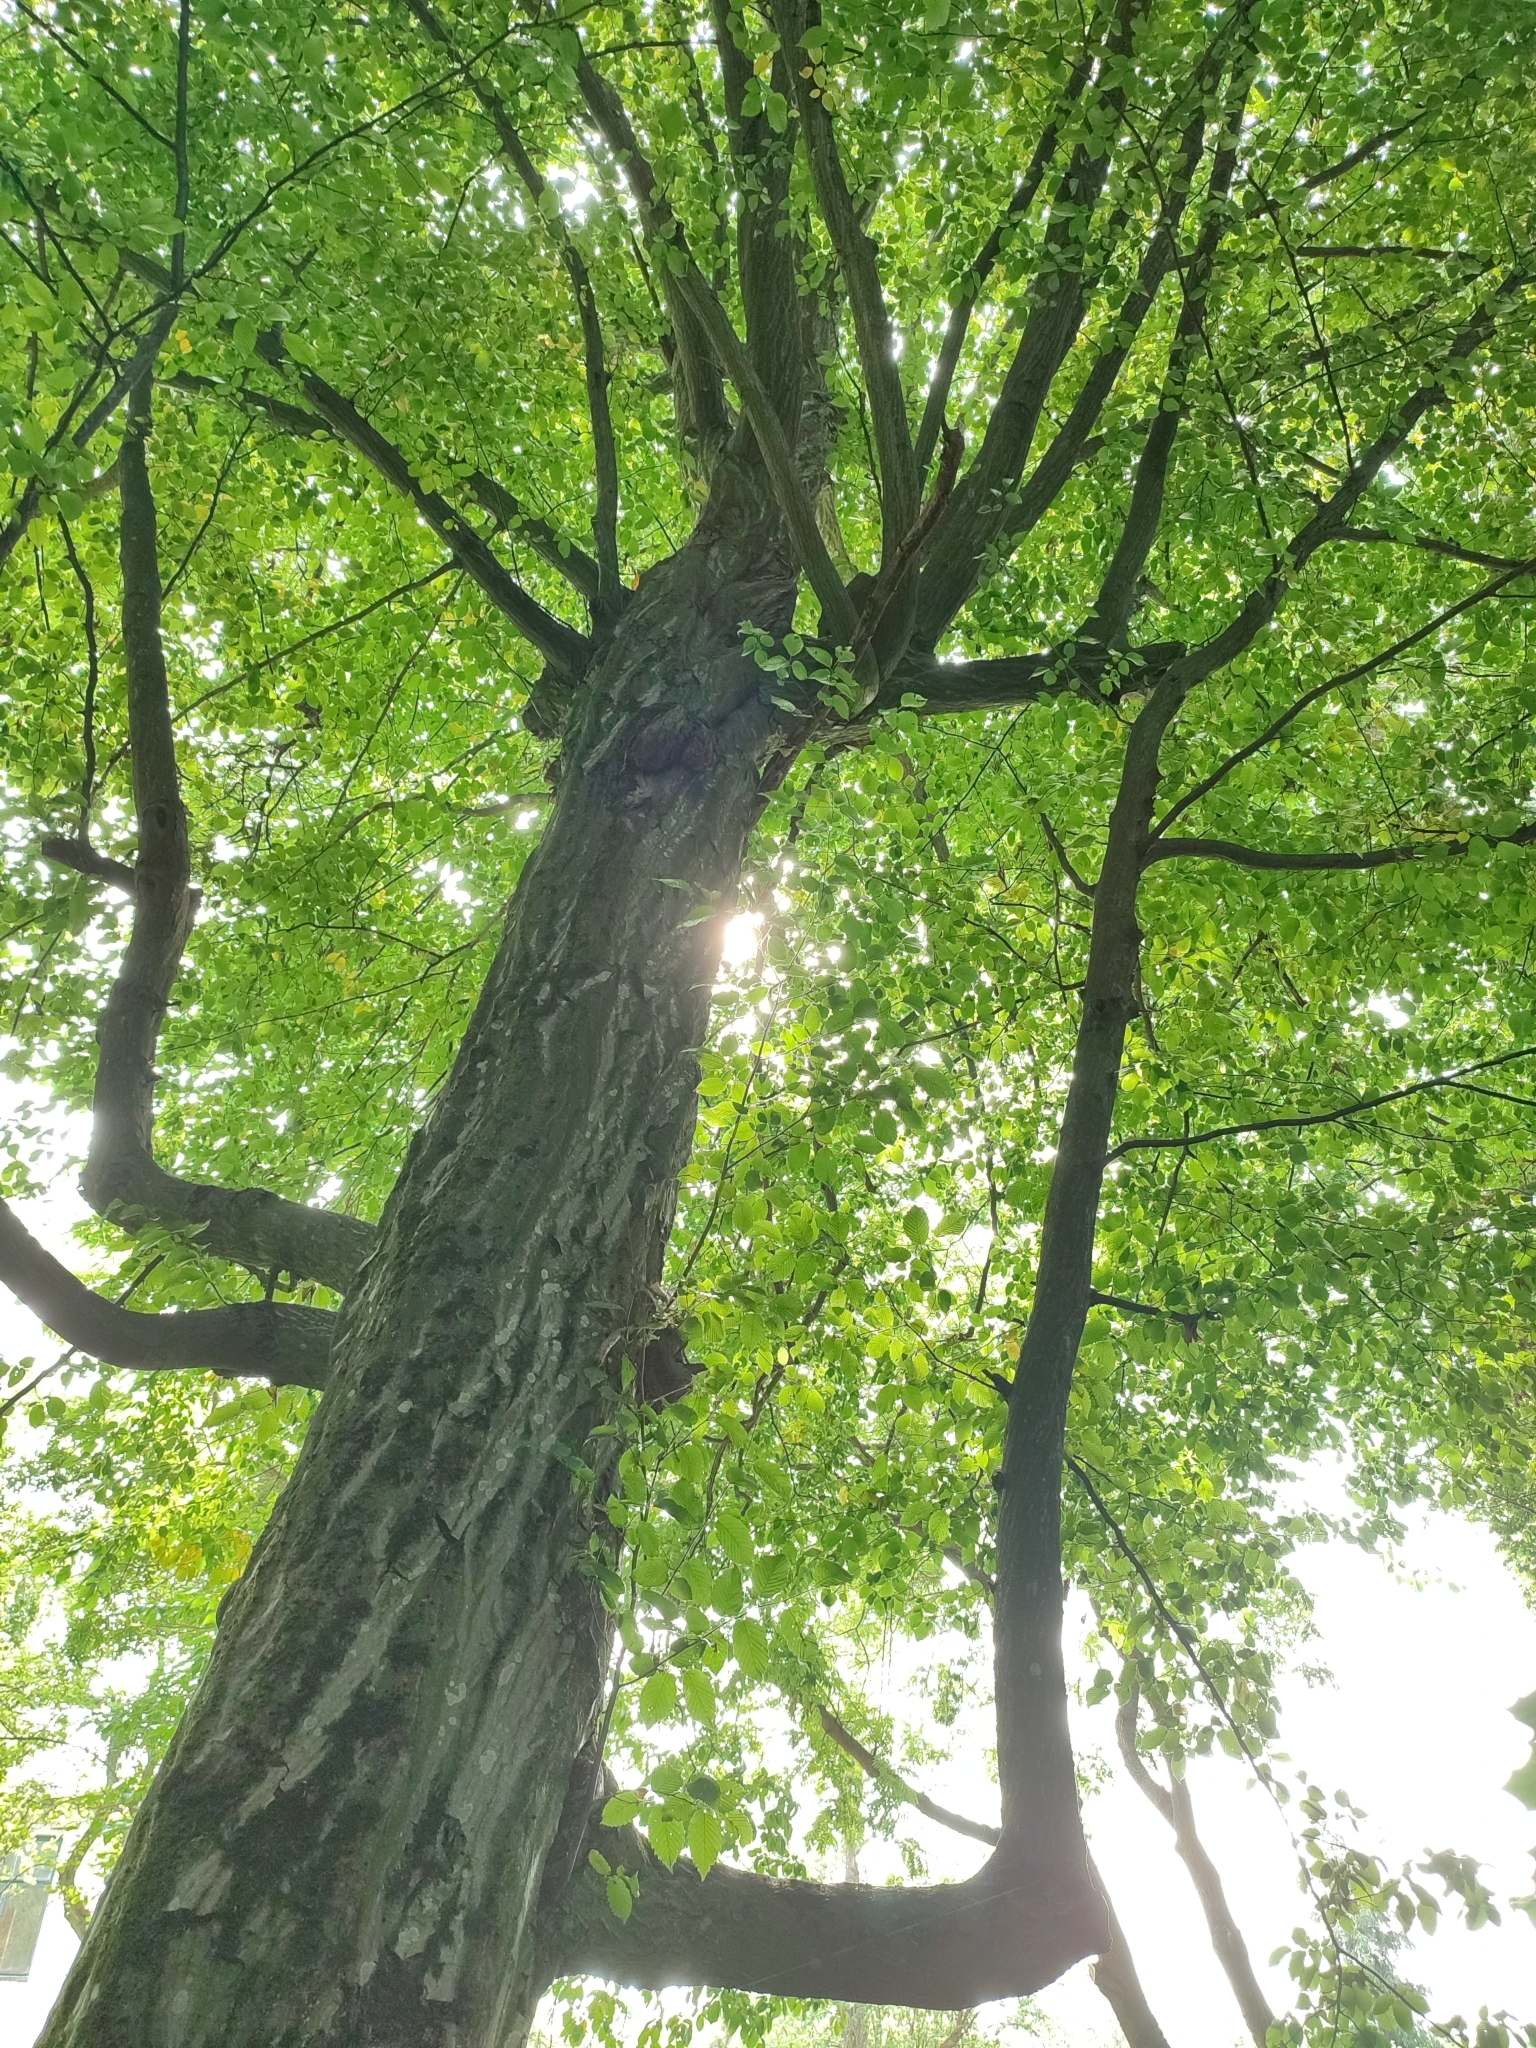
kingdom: Plantae
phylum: Tracheophyta
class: Magnoliopsida
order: Fagales
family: Betulaceae
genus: Carpinus
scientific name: Carpinus betulus
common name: Hornbeam
